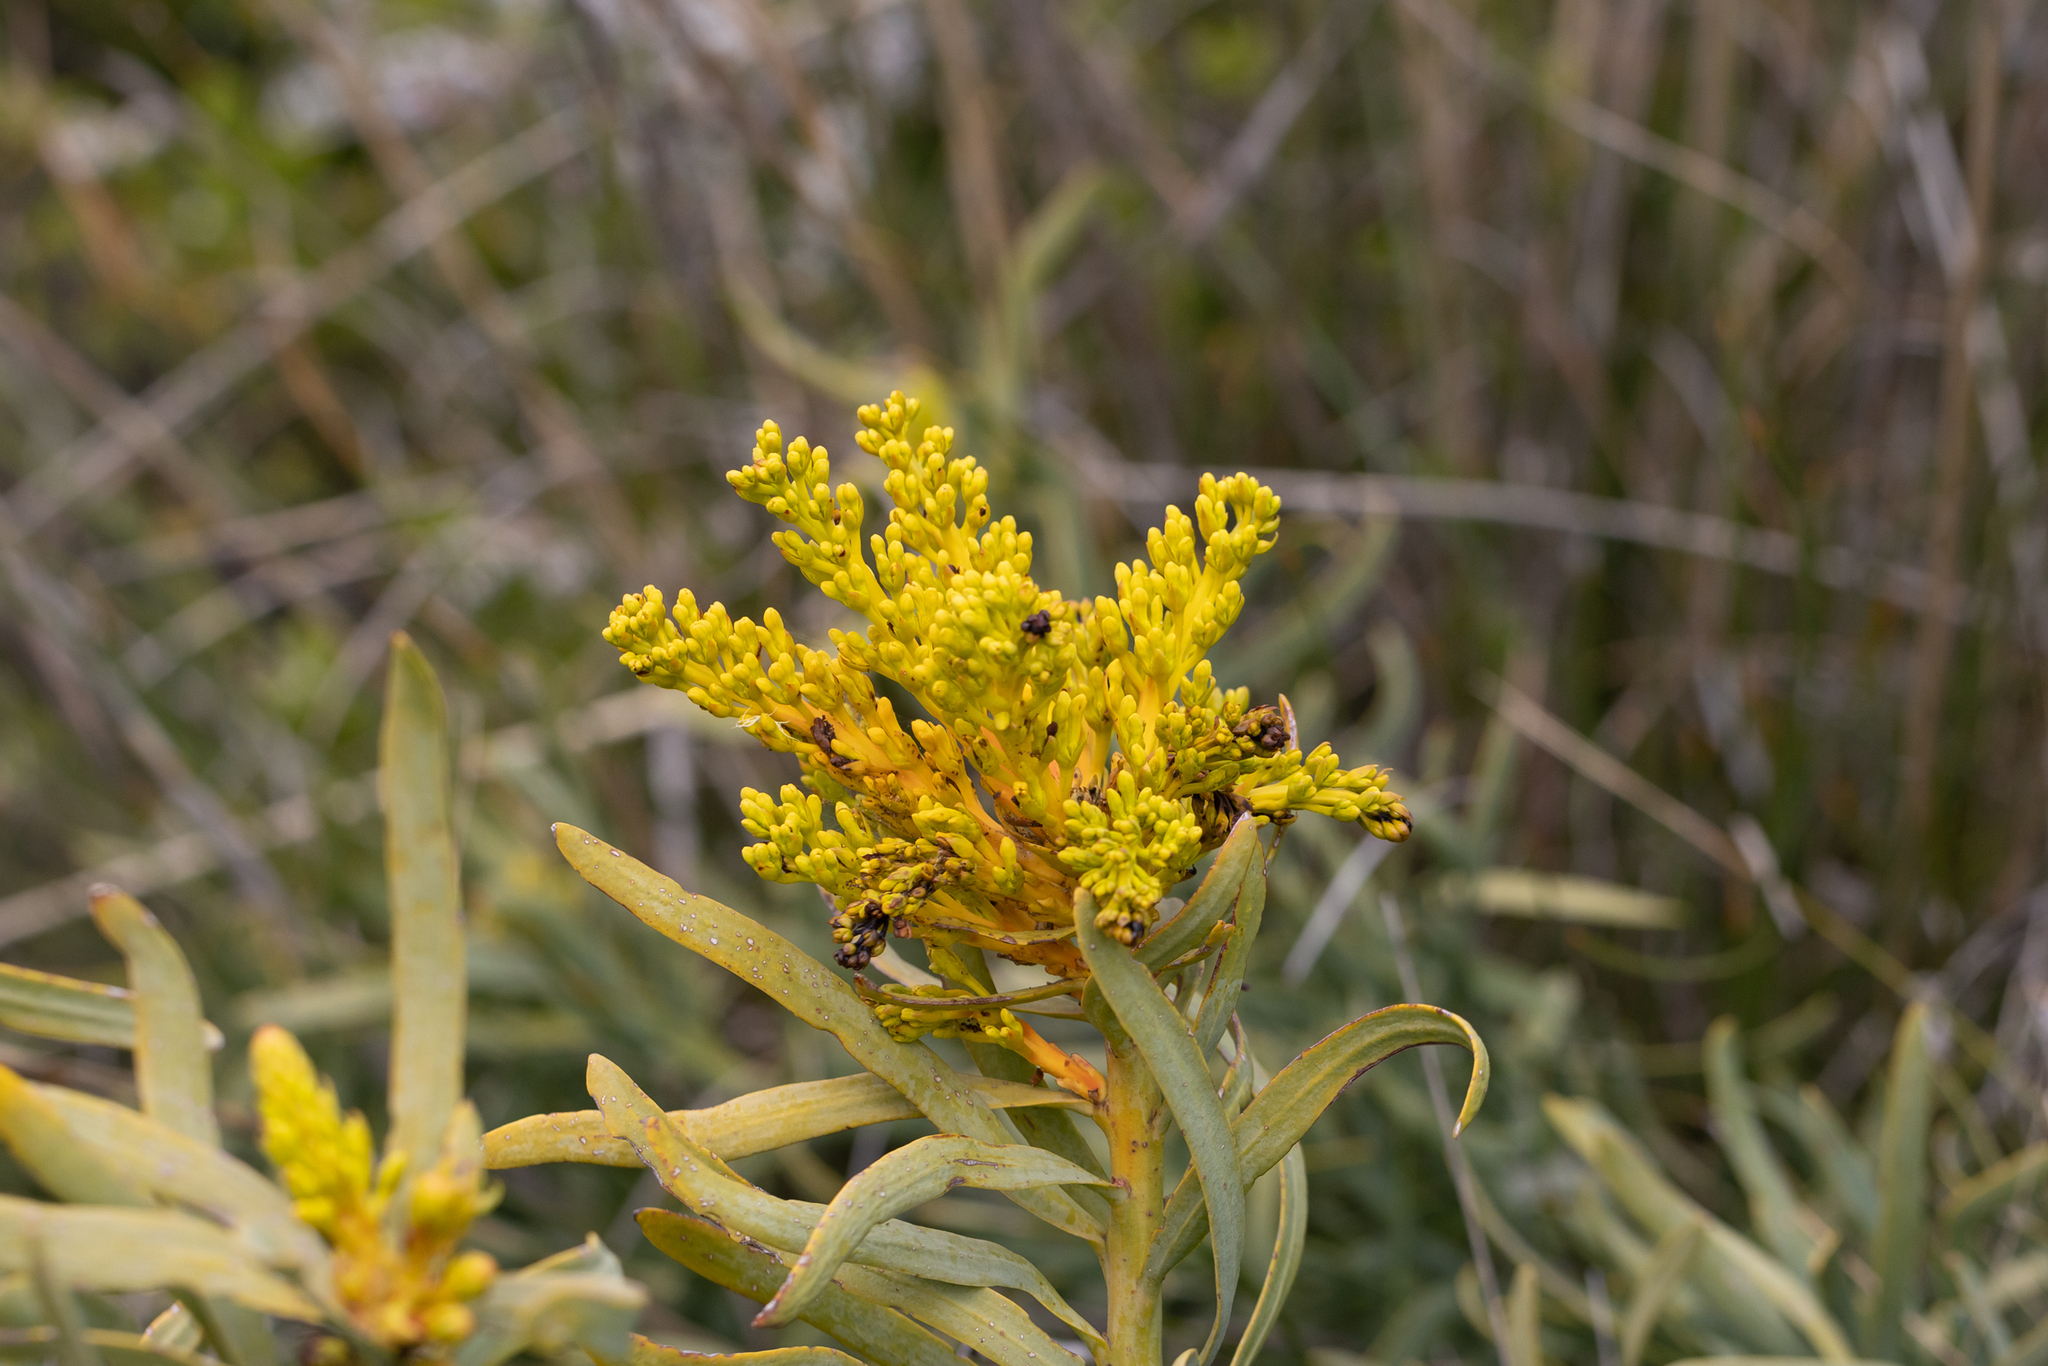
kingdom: Plantae
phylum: Tracheophyta
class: Magnoliopsida
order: Santalales
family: Loranthaceae
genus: Nuytsia
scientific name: Nuytsia floribunda
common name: Western australian christmastree
